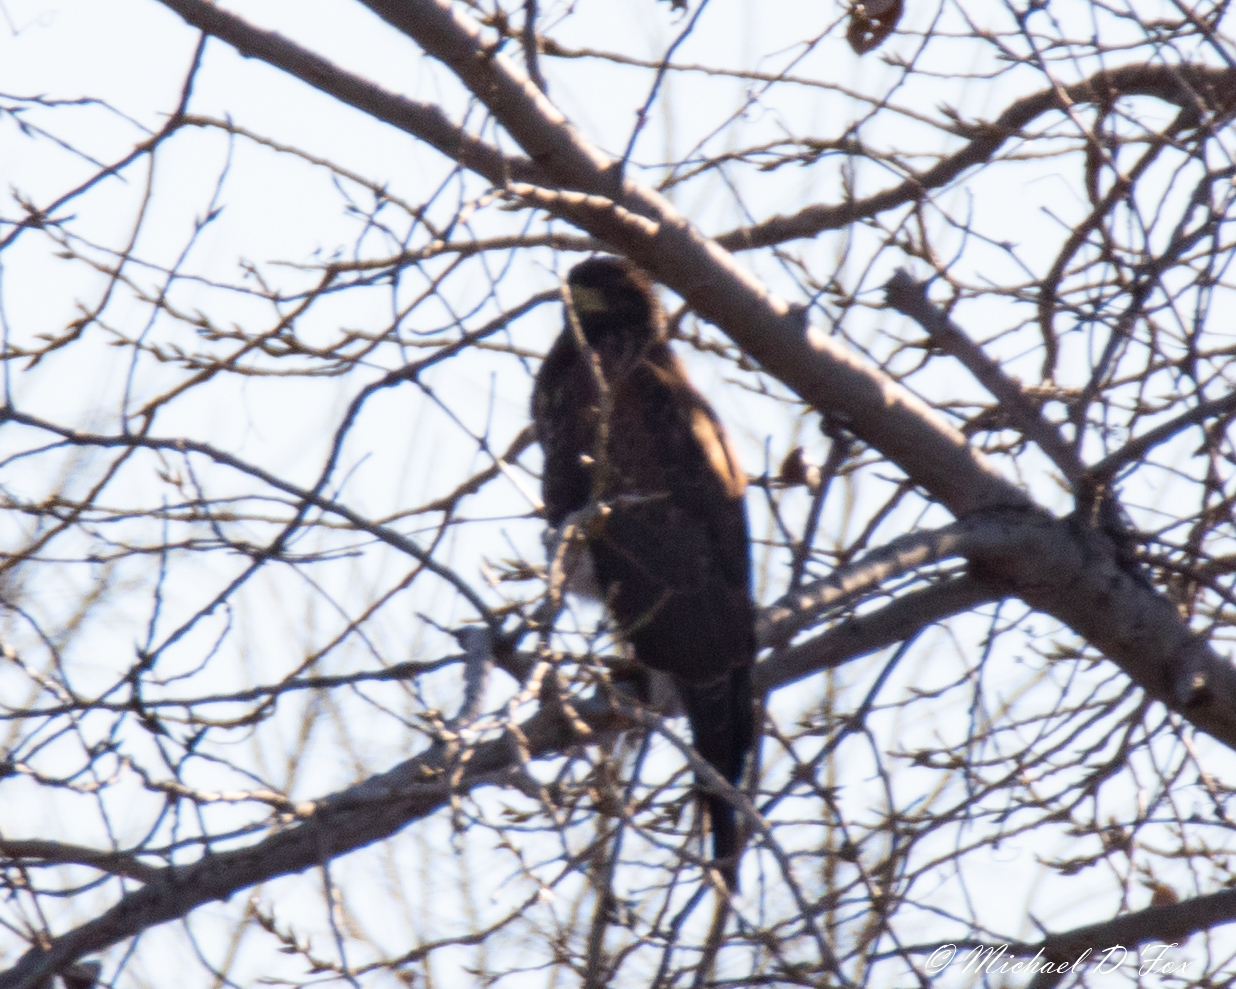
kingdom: Animalia
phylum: Chordata
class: Aves
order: Accipitriformes
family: Accipitridae
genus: Parabuteo
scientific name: Parabuteo unicinctus
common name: Harris's hawk
